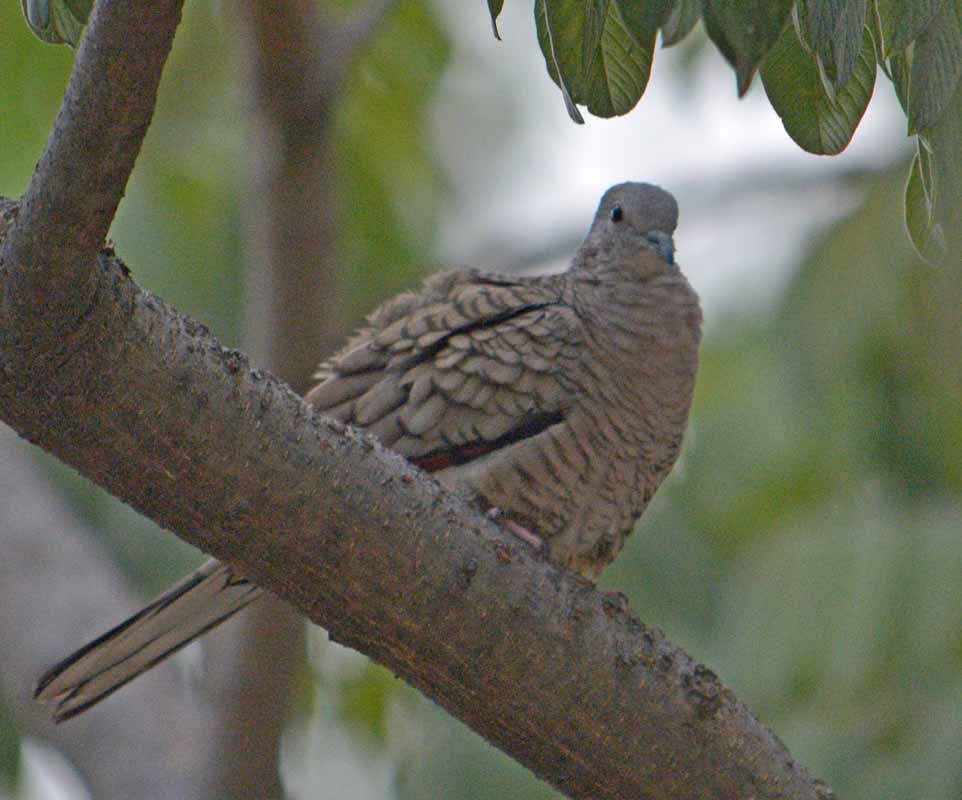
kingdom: Animalia
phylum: Chordata
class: Aves
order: Columbiformes
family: Columbidae
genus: Columbina
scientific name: Columbina inca
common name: Inca dove
